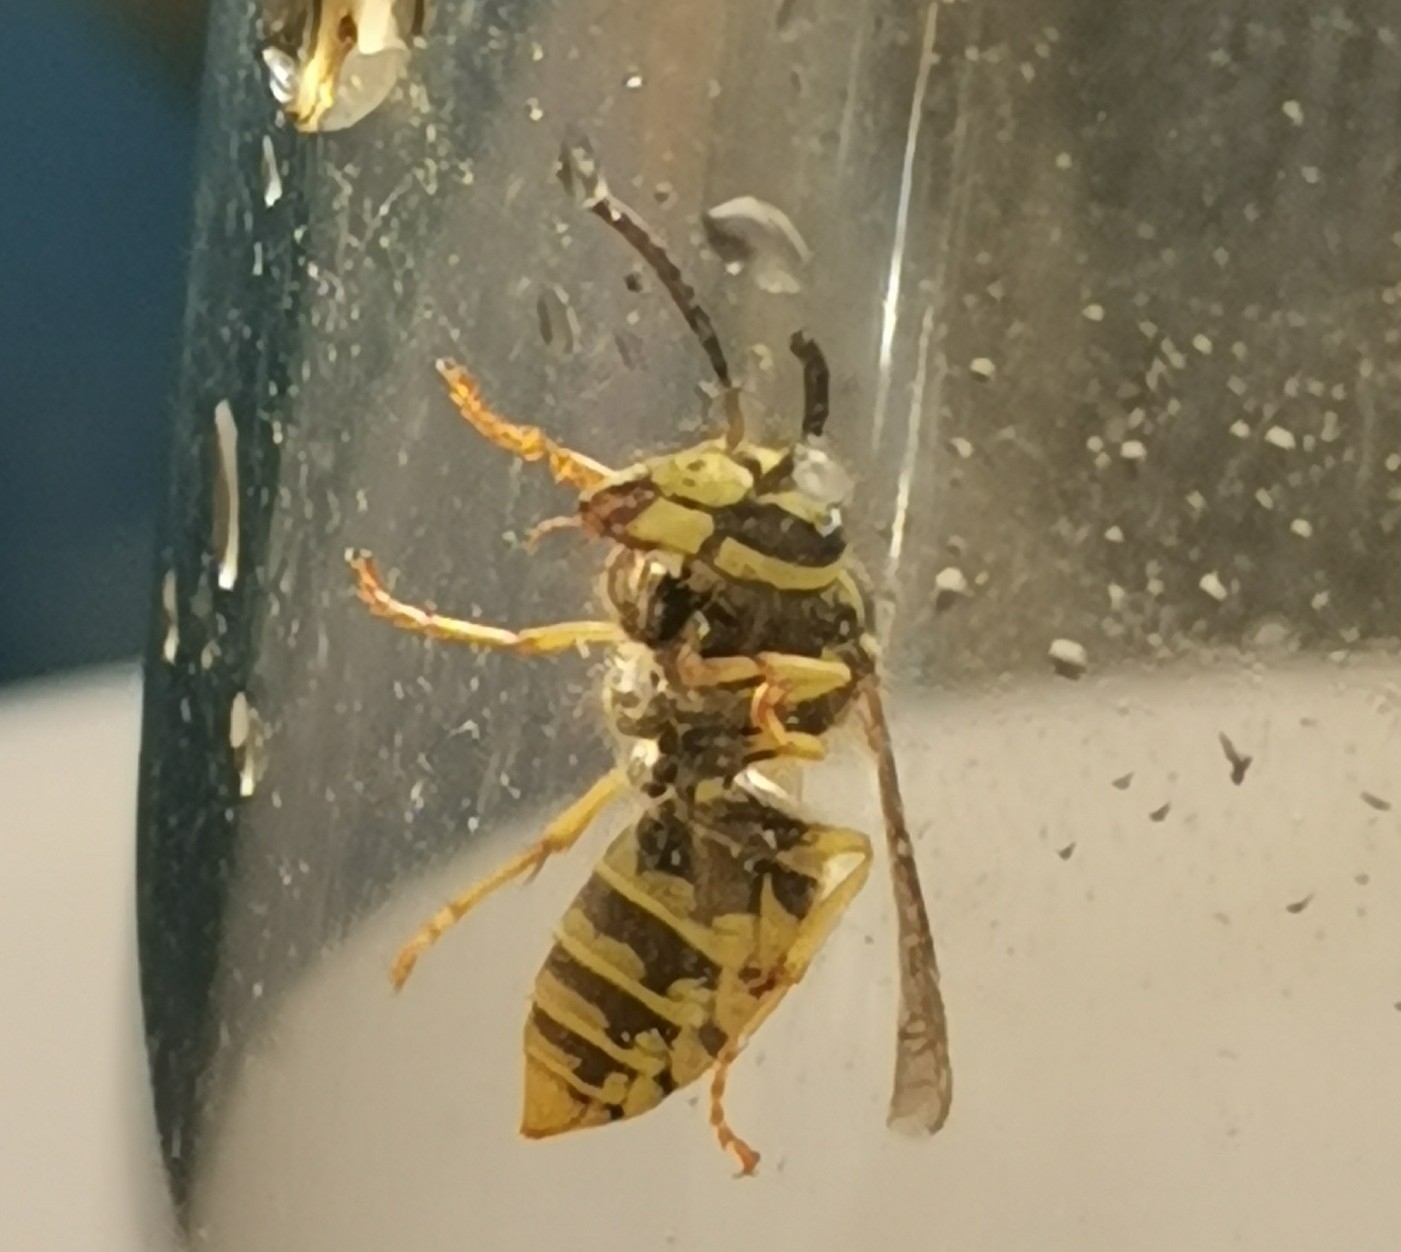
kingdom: Animalia
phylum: Arthropoda
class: Insecta
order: Hymenoptera
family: Vespidae
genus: Vespula
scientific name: Vespula germanica
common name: German wasp
